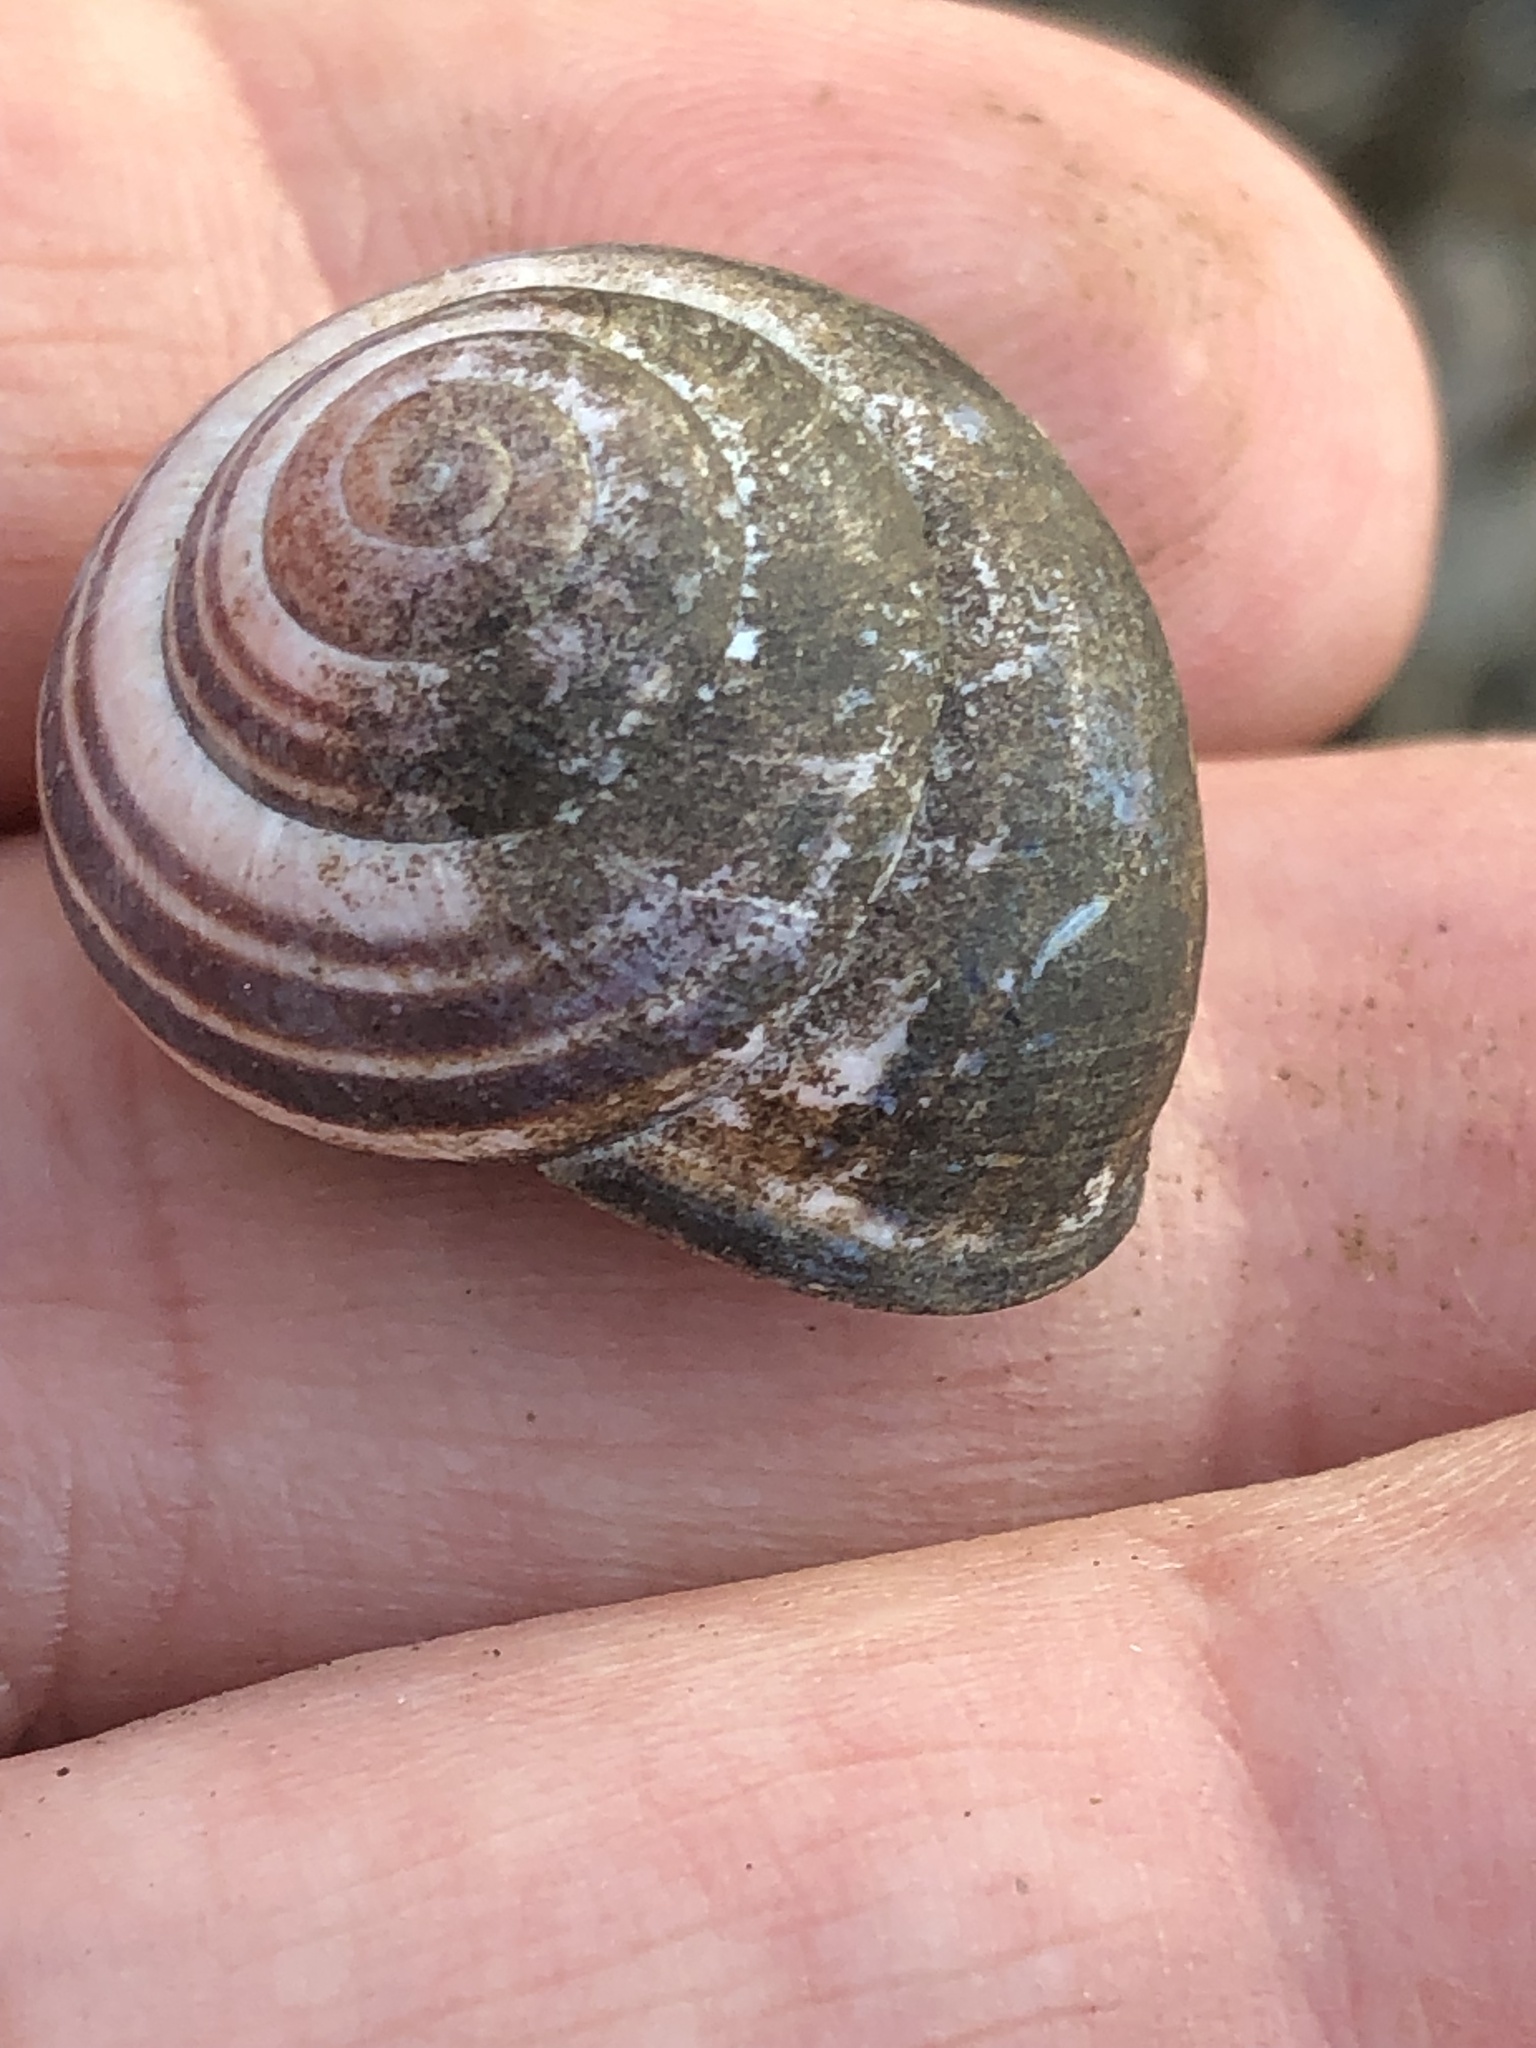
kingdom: Animalia
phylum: Mollusca
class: Gastropoda
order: Stylommatophora
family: Helicidae
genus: Cepaea
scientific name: Cepaea nemoralis
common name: Grovesnail
